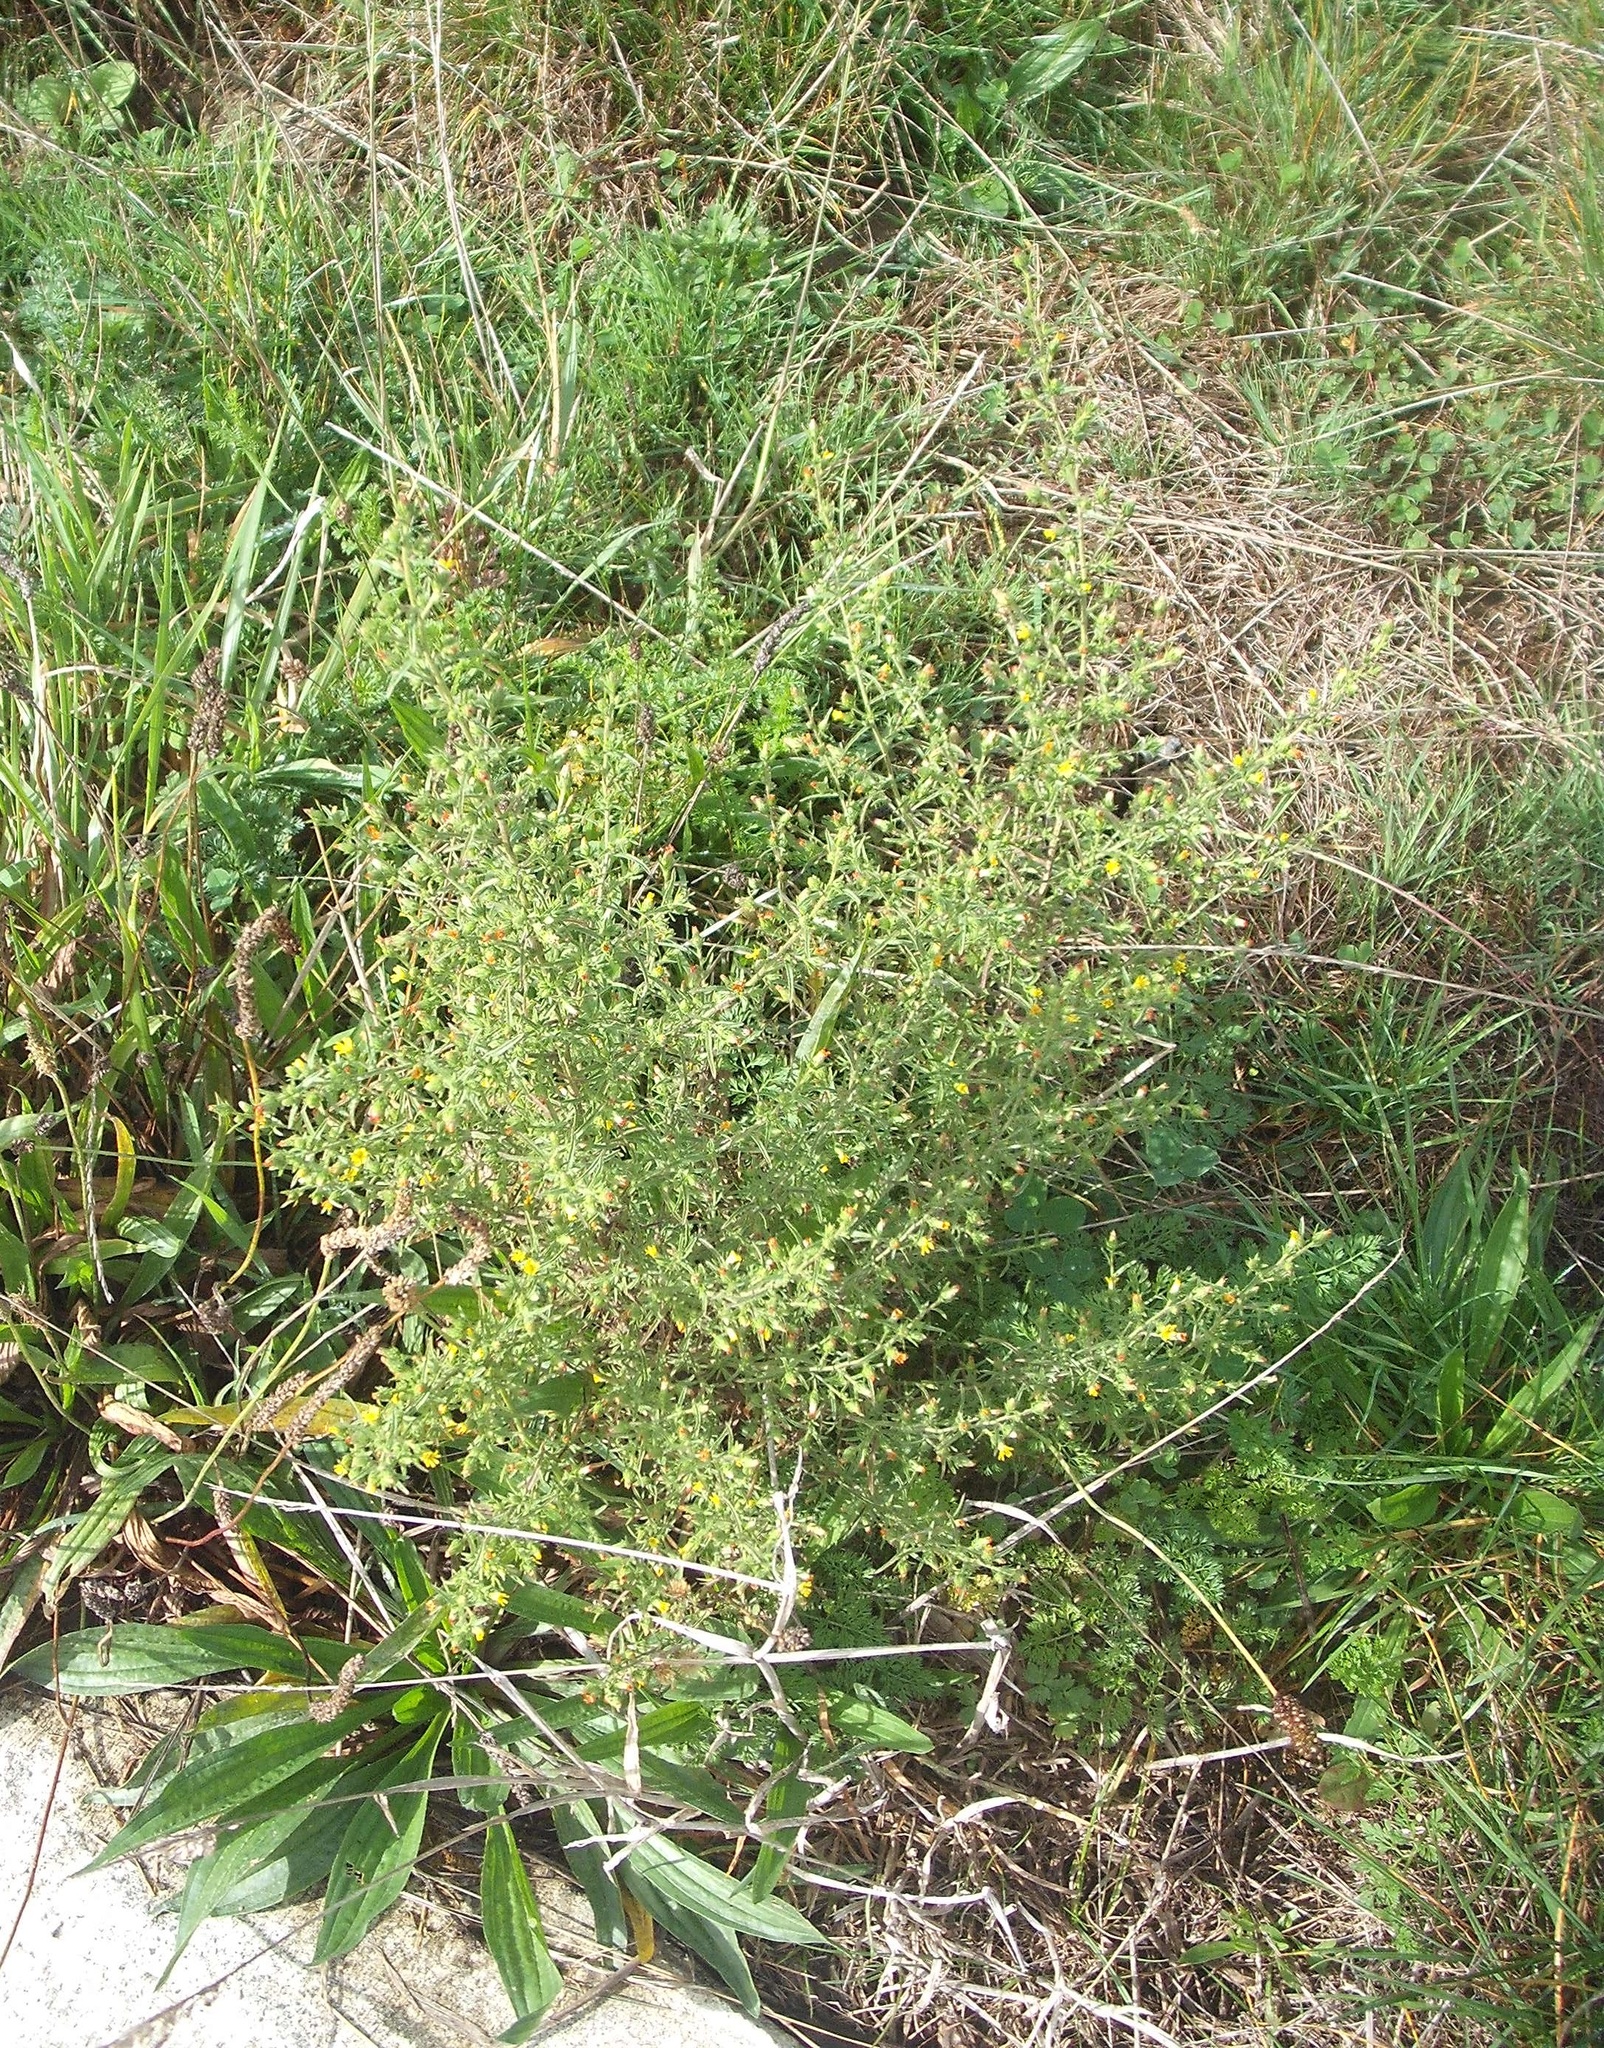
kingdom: Plantae
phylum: Tracheophyta
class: Magnoliopsida
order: Asterales
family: Asteraceae
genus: Dittrichia
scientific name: Dittrichia graveolens
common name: Stinking fleabane
